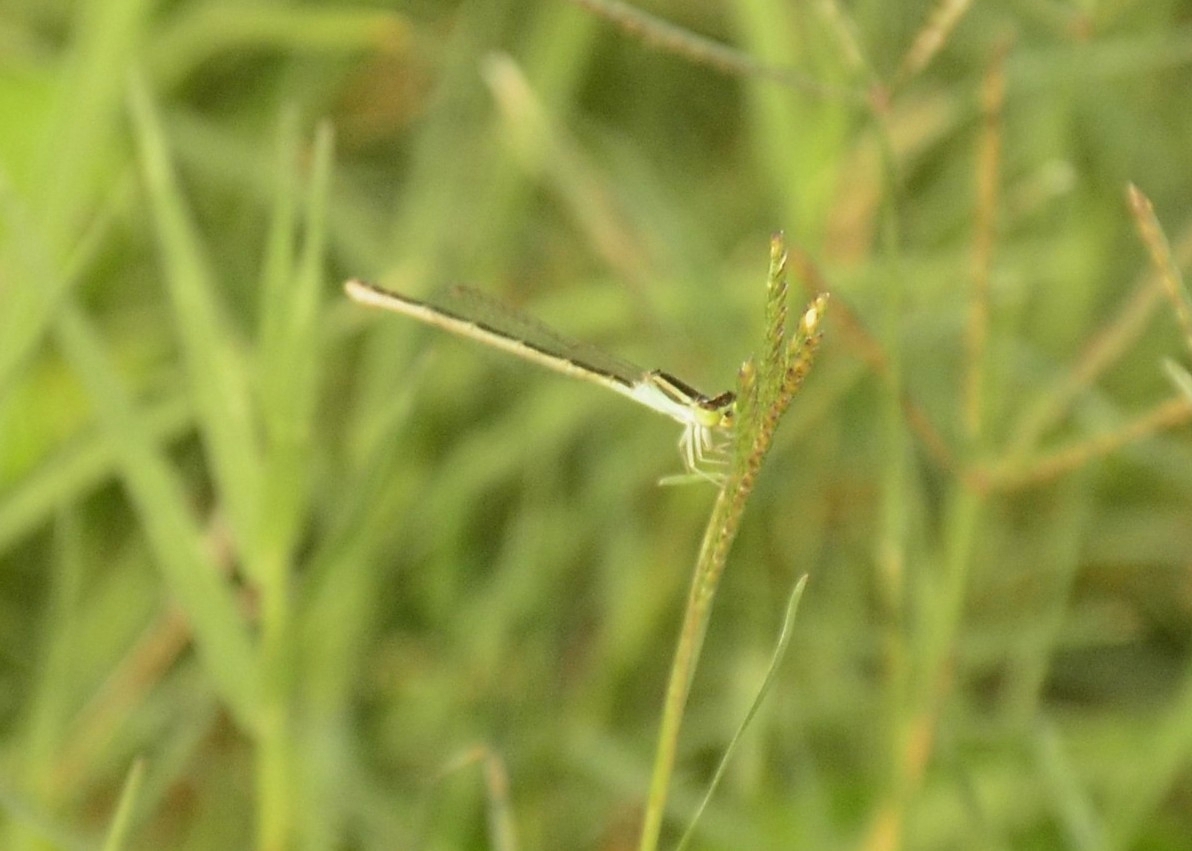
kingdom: Animalia
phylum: Arthropoda
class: Insecta
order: Odonata
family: Coenagrionidae
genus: Ischnura
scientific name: Ischnura rubilio
